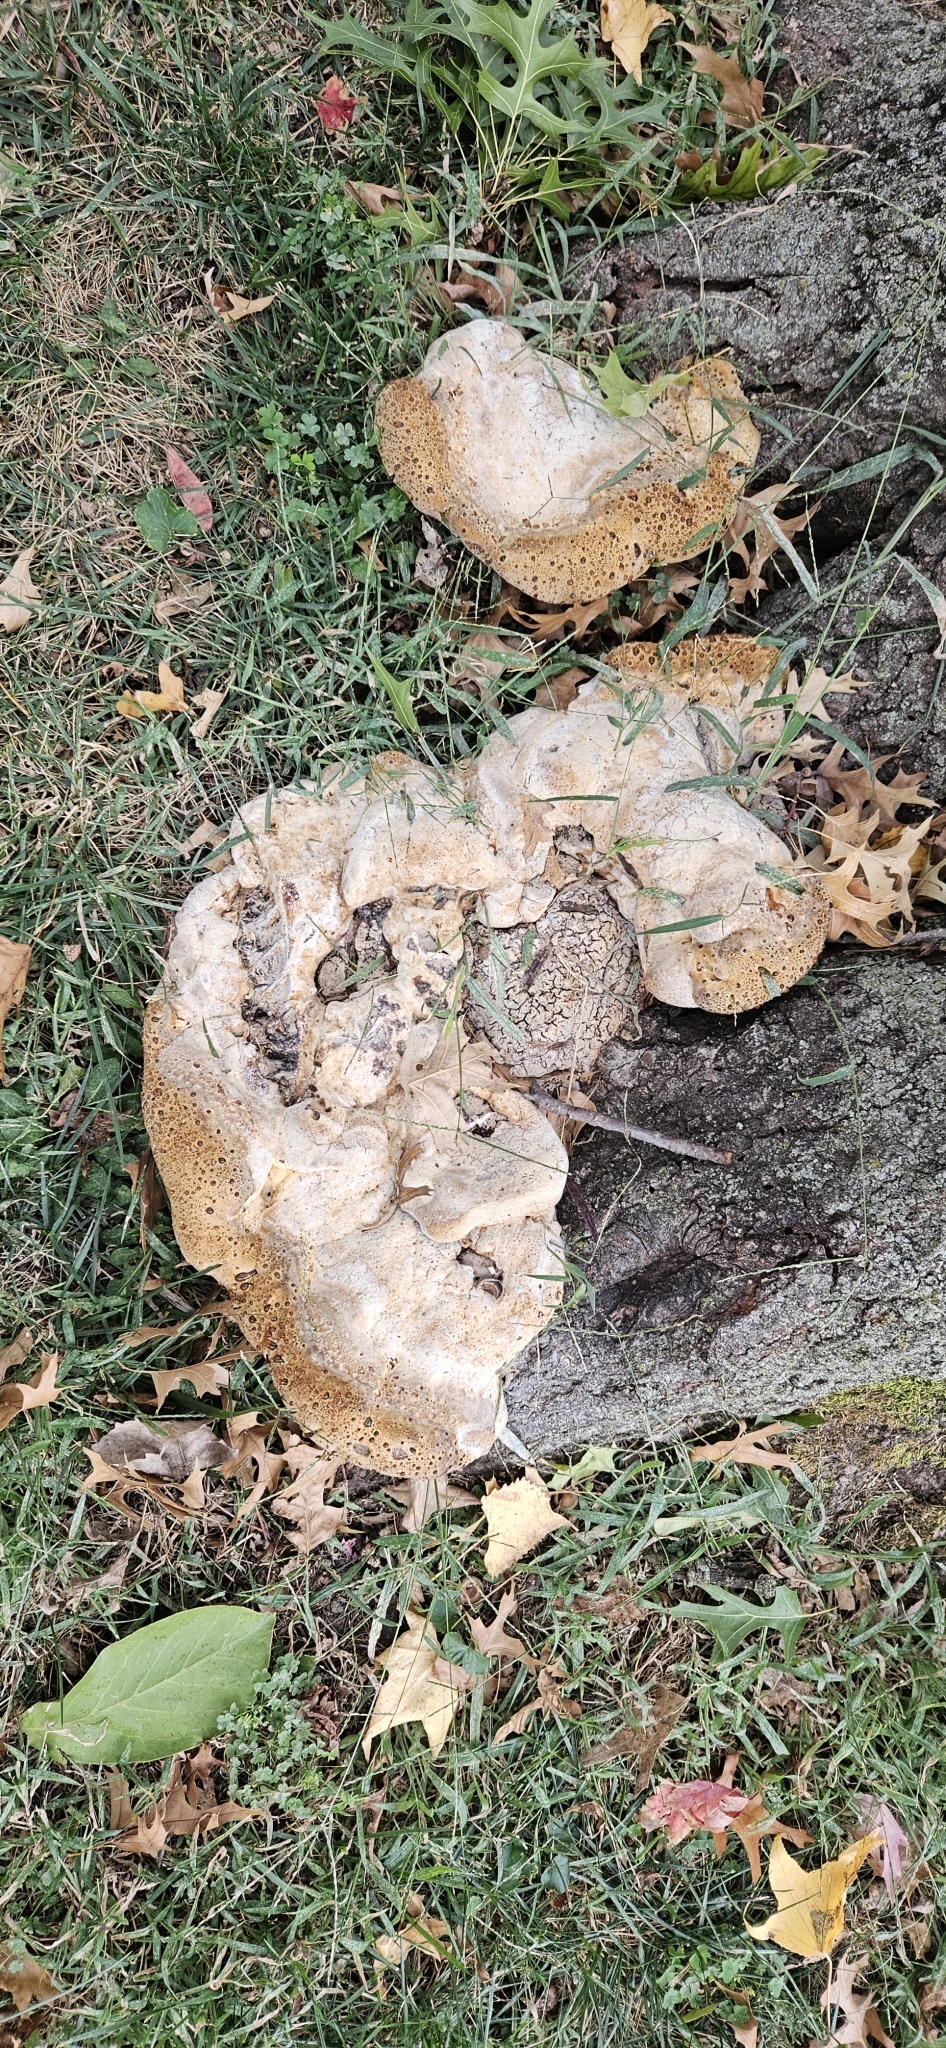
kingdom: Fungi
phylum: Basidiomycota
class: Agaricomycetes
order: Hymenochaetales
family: Hymenochaetaceae
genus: Pseudoinonotus
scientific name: Pseudoinonotus dryadeus
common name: Oak bracket
